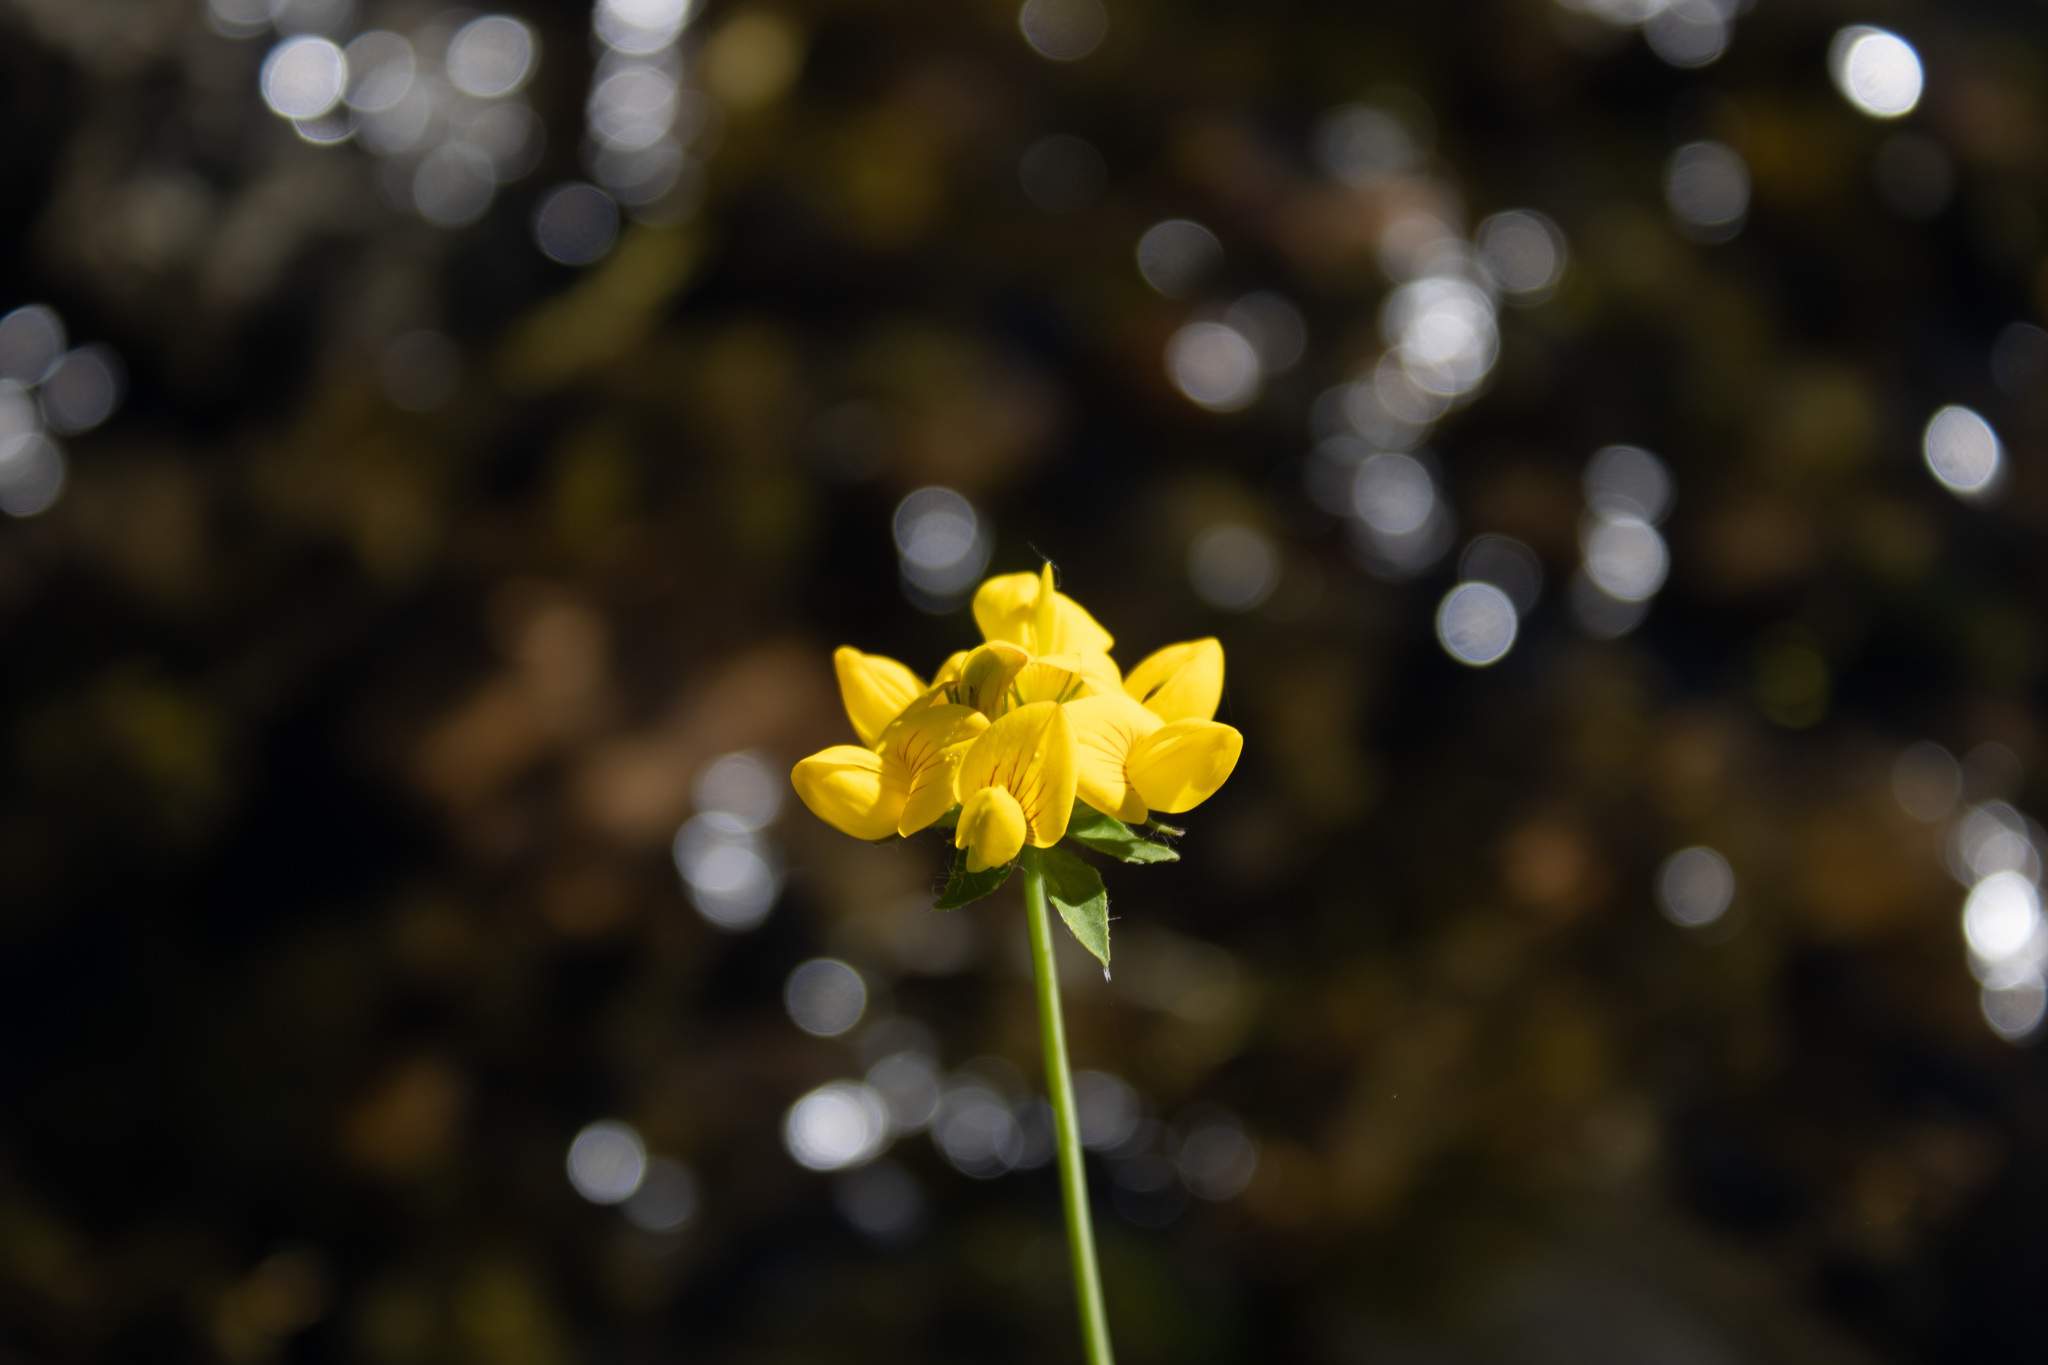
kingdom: Plantae
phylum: Tracheophyta
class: Magnoliopsida
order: Fabales
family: Fabaceae
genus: Lotus
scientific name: Lotus pedunculatus
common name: Greater birdsfoot-trefoil
